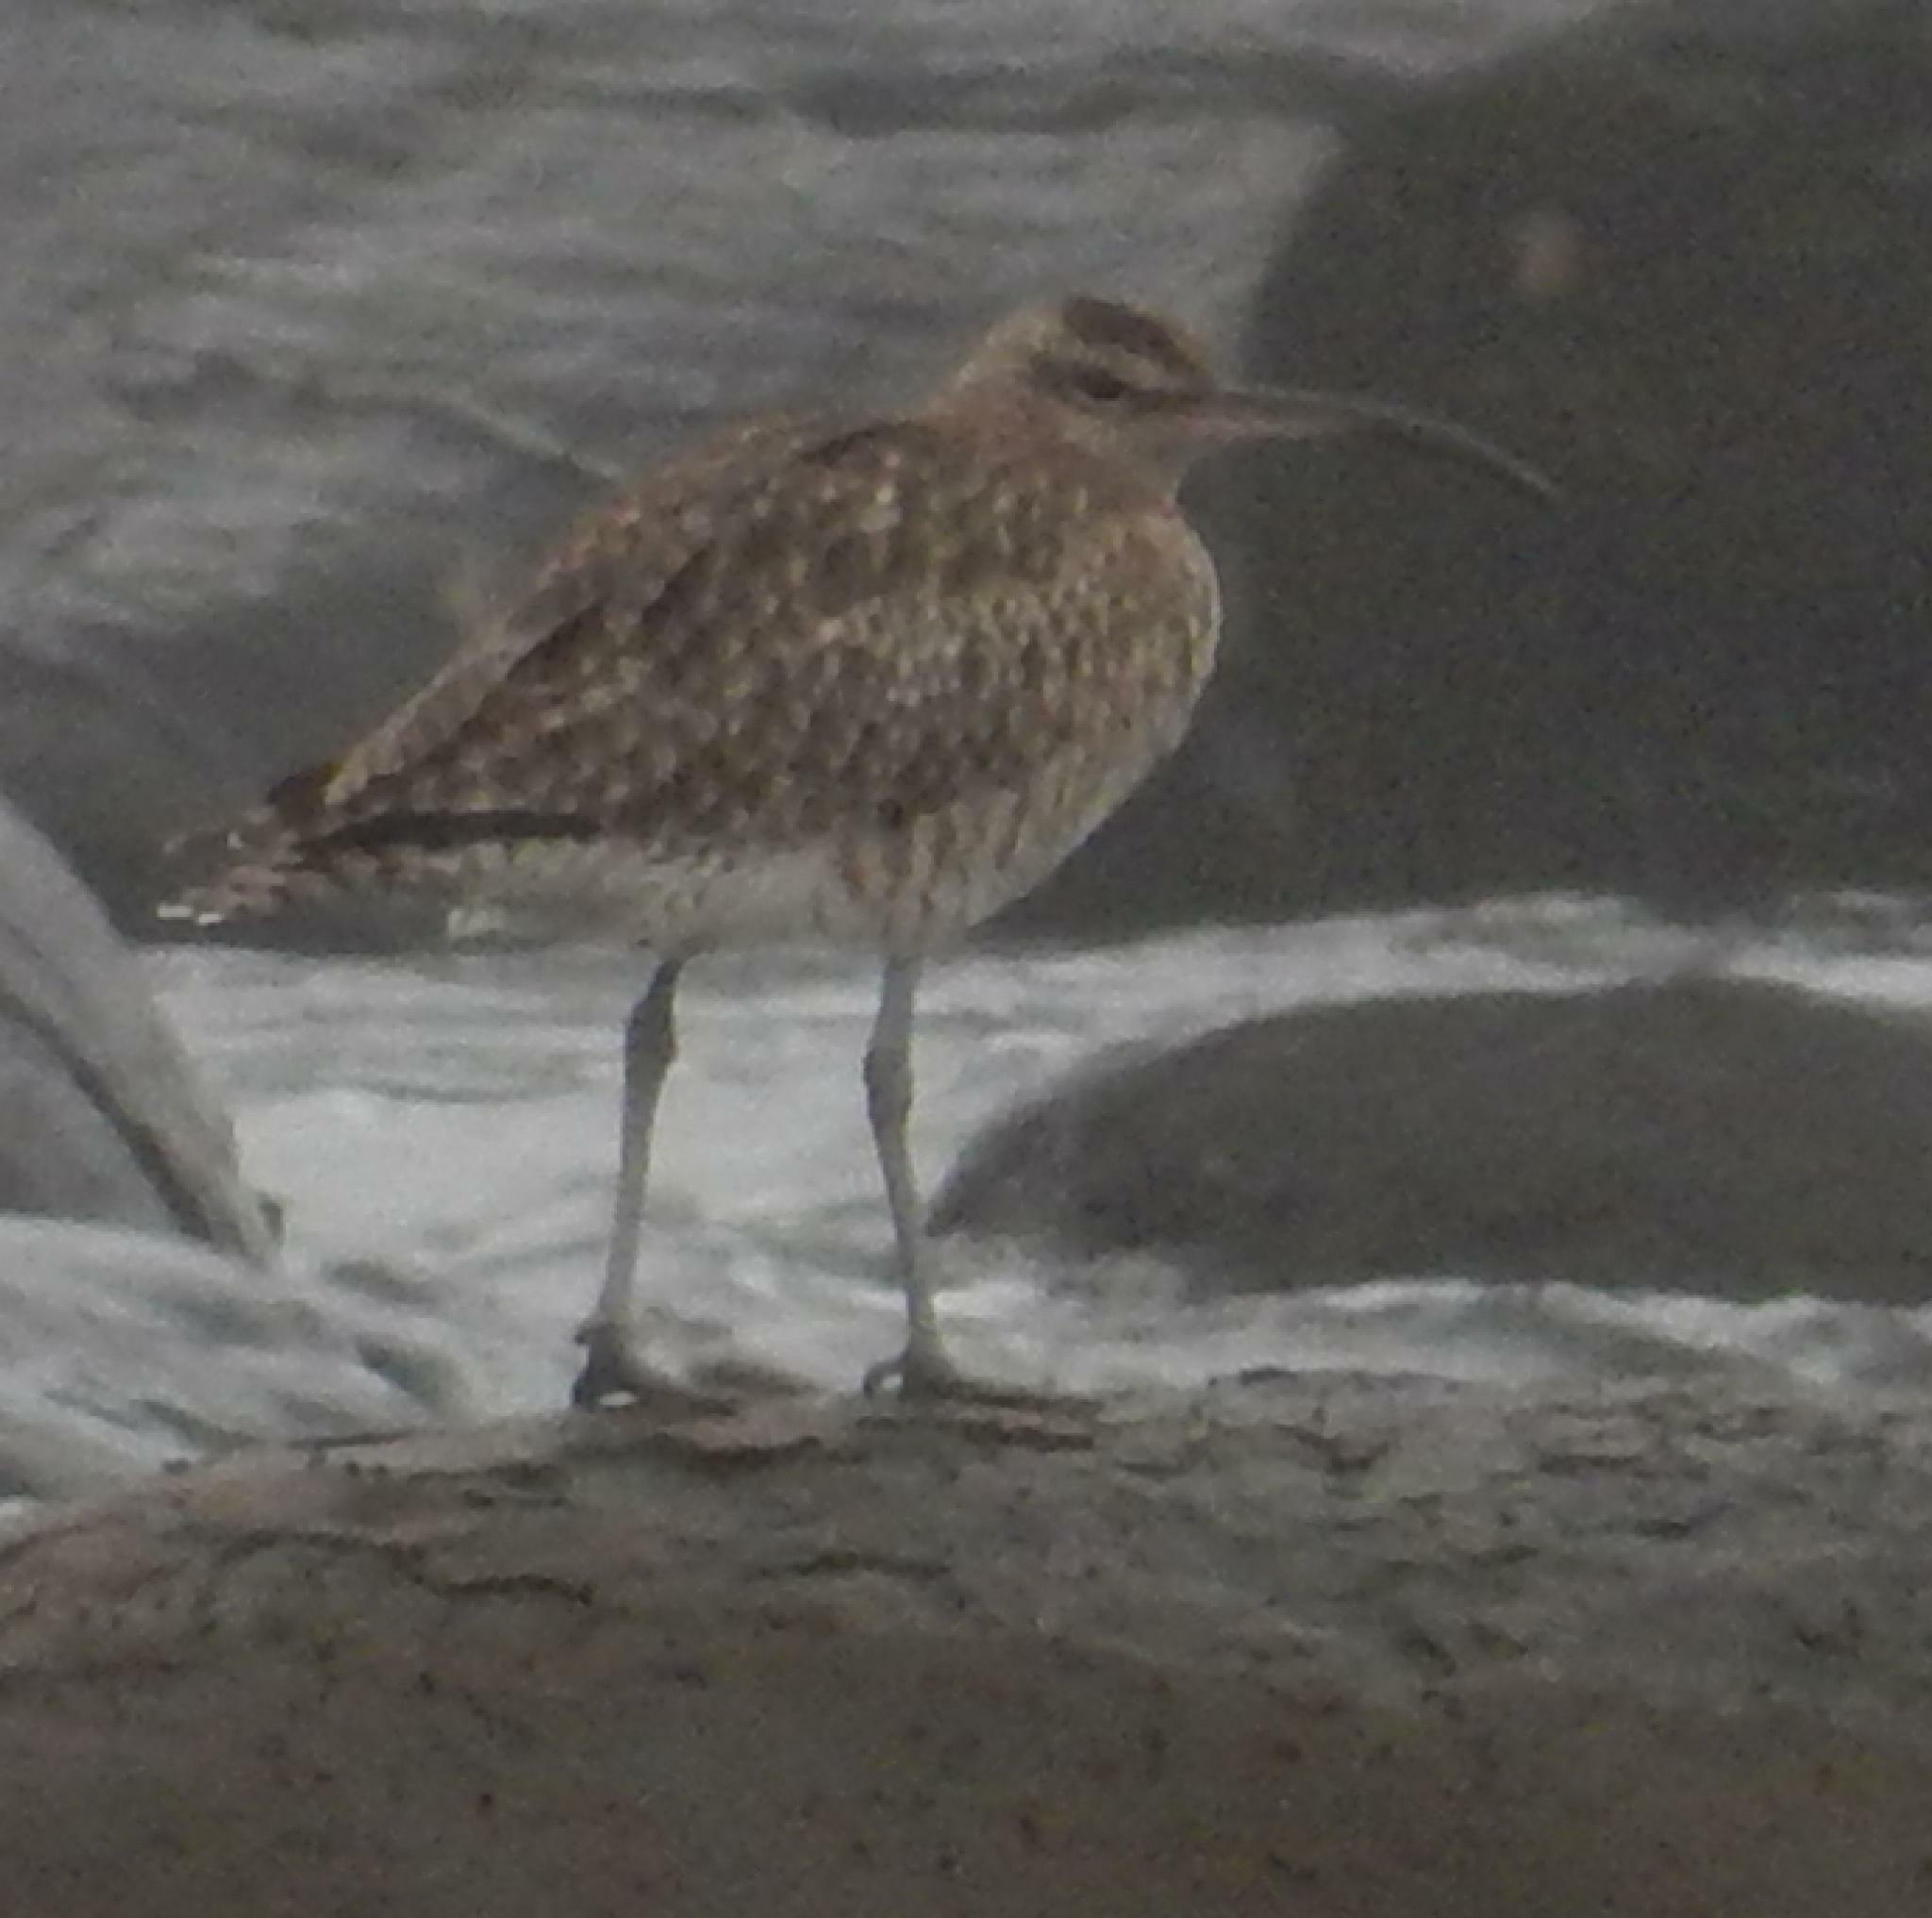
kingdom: Animalia
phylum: Chordata
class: Aves
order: Charadriiformes
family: Scolopacidae
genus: Numenius
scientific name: Numenius phaeopus
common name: Whimbrel
